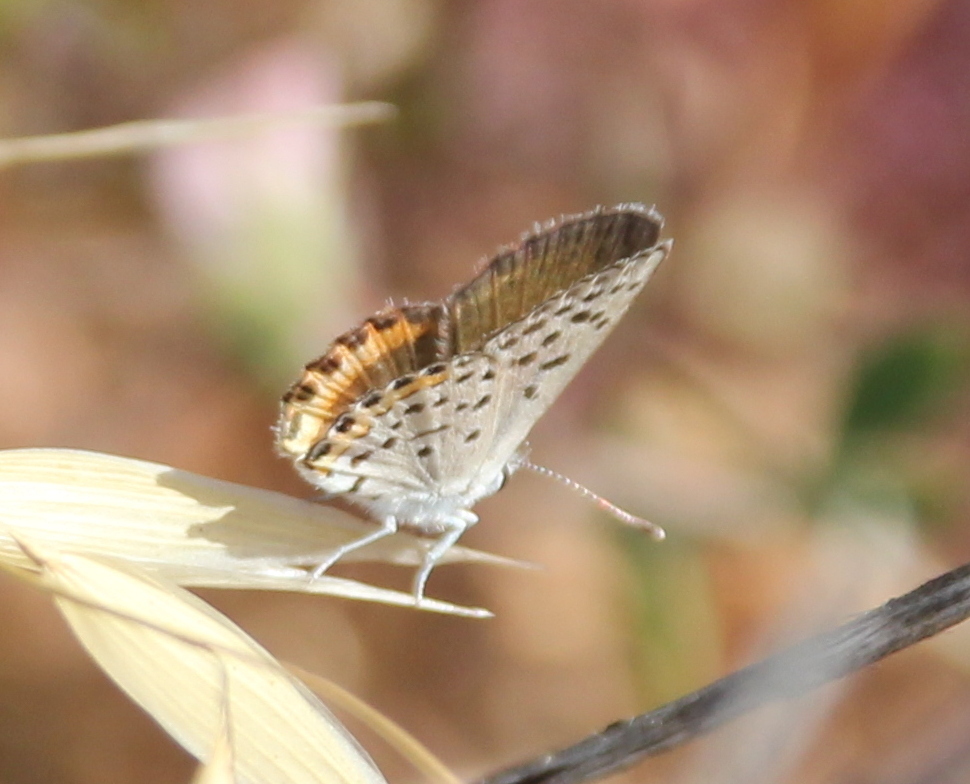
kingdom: Animalia
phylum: Arthropoda
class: Insecta
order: Lepidoptera
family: Lycaenidae
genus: Icaricia
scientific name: Icaricia acmon
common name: Acmon blue
